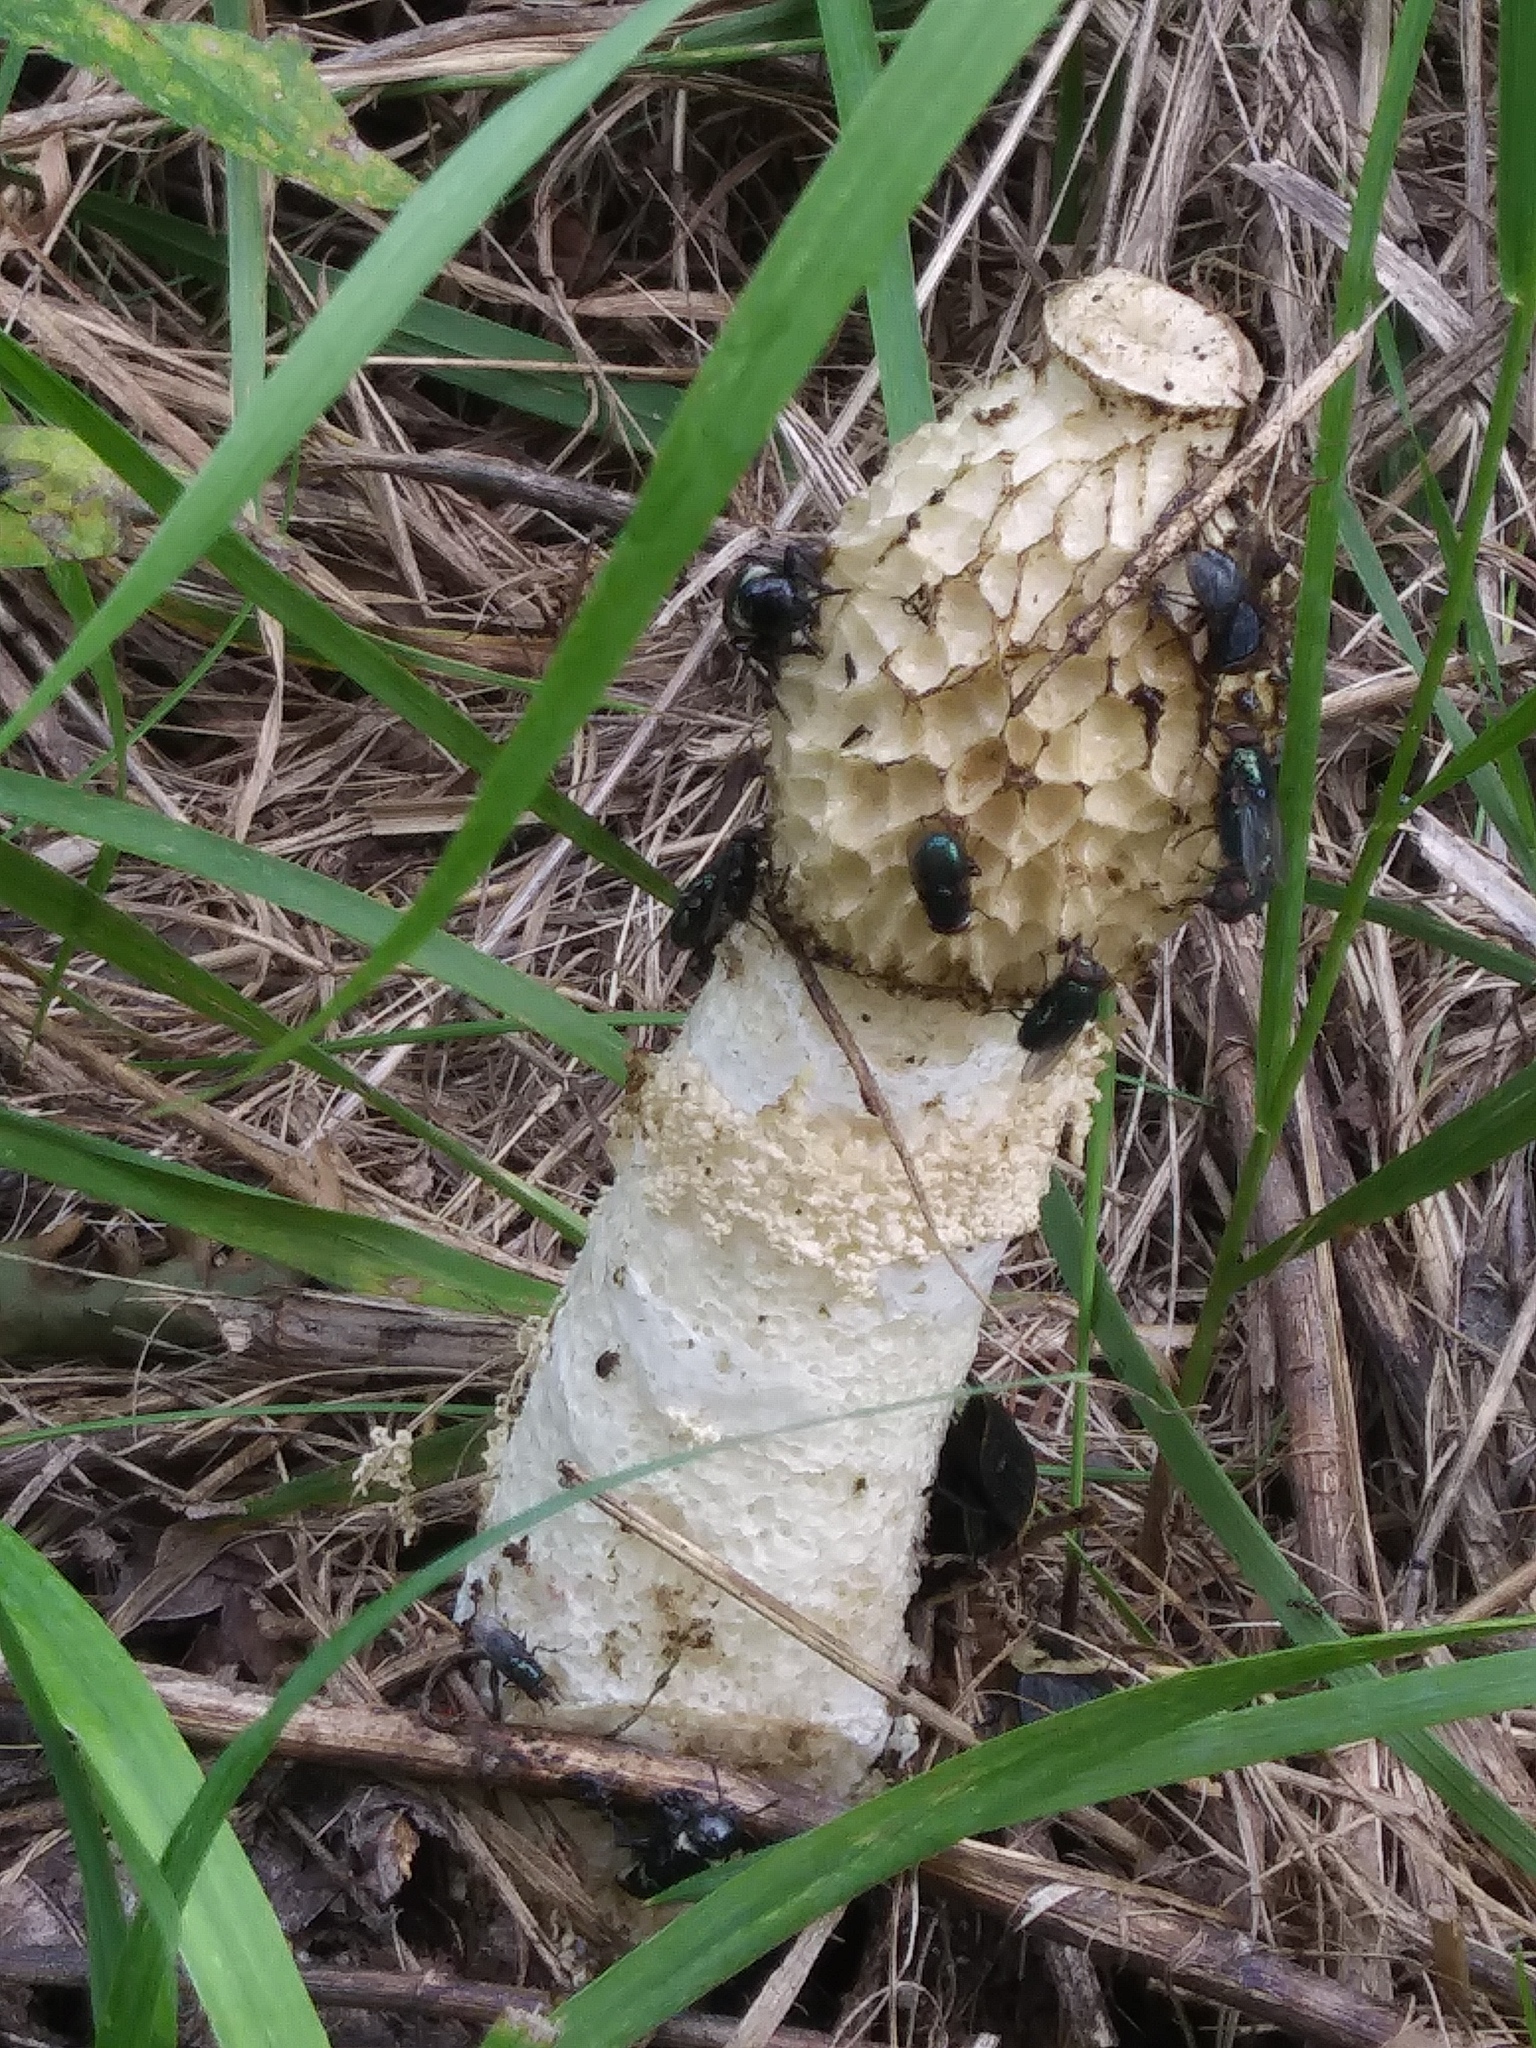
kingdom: Animalia
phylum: Arthropoda
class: Insecta
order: Coleoptera
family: Staphylinidae
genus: Creophilus
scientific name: Creophilus maxillosus
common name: Hairy rove beetle
